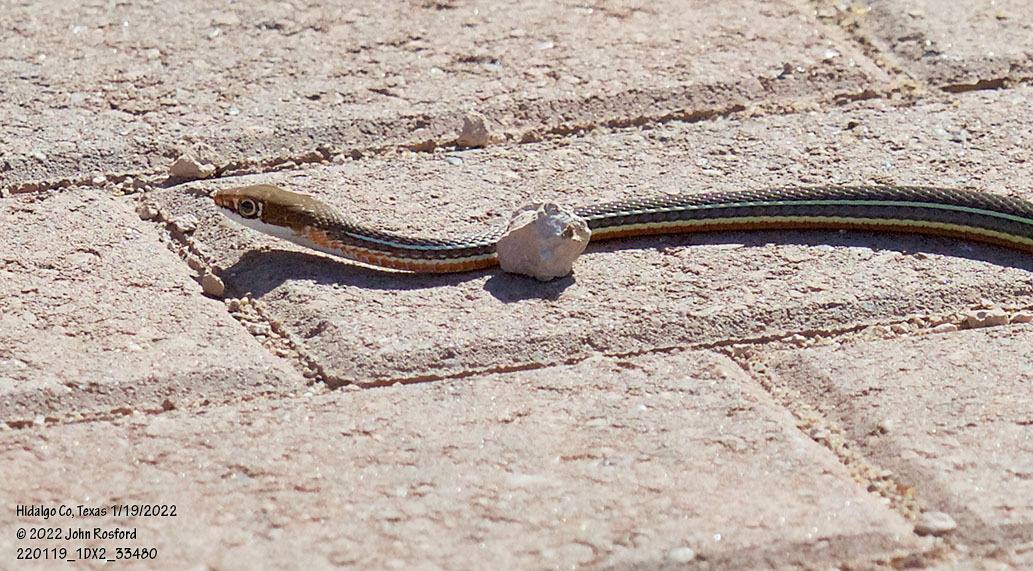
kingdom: Animalia
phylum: Chordata
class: Squamata
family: Colubridae
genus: Masticophis
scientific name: Masticophis schotti
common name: Schott's whipsnake
